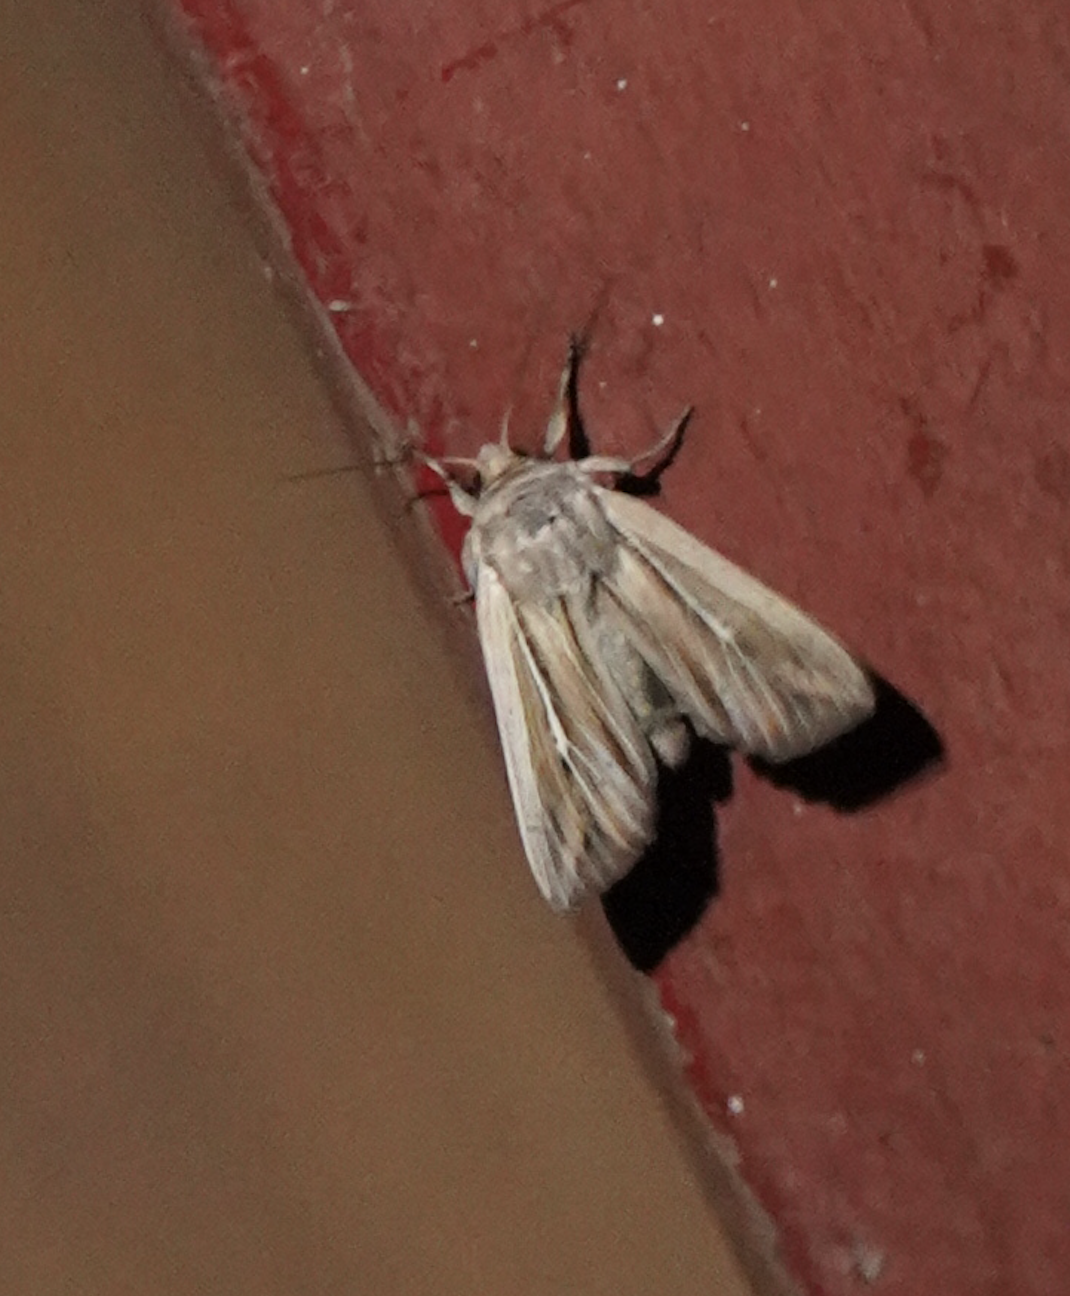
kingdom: Animalia
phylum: Arthropoda
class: Insecta
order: Lepidoptera
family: Noctuidae
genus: Leucania
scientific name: Leucania commoides
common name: Two-lined wainscot
